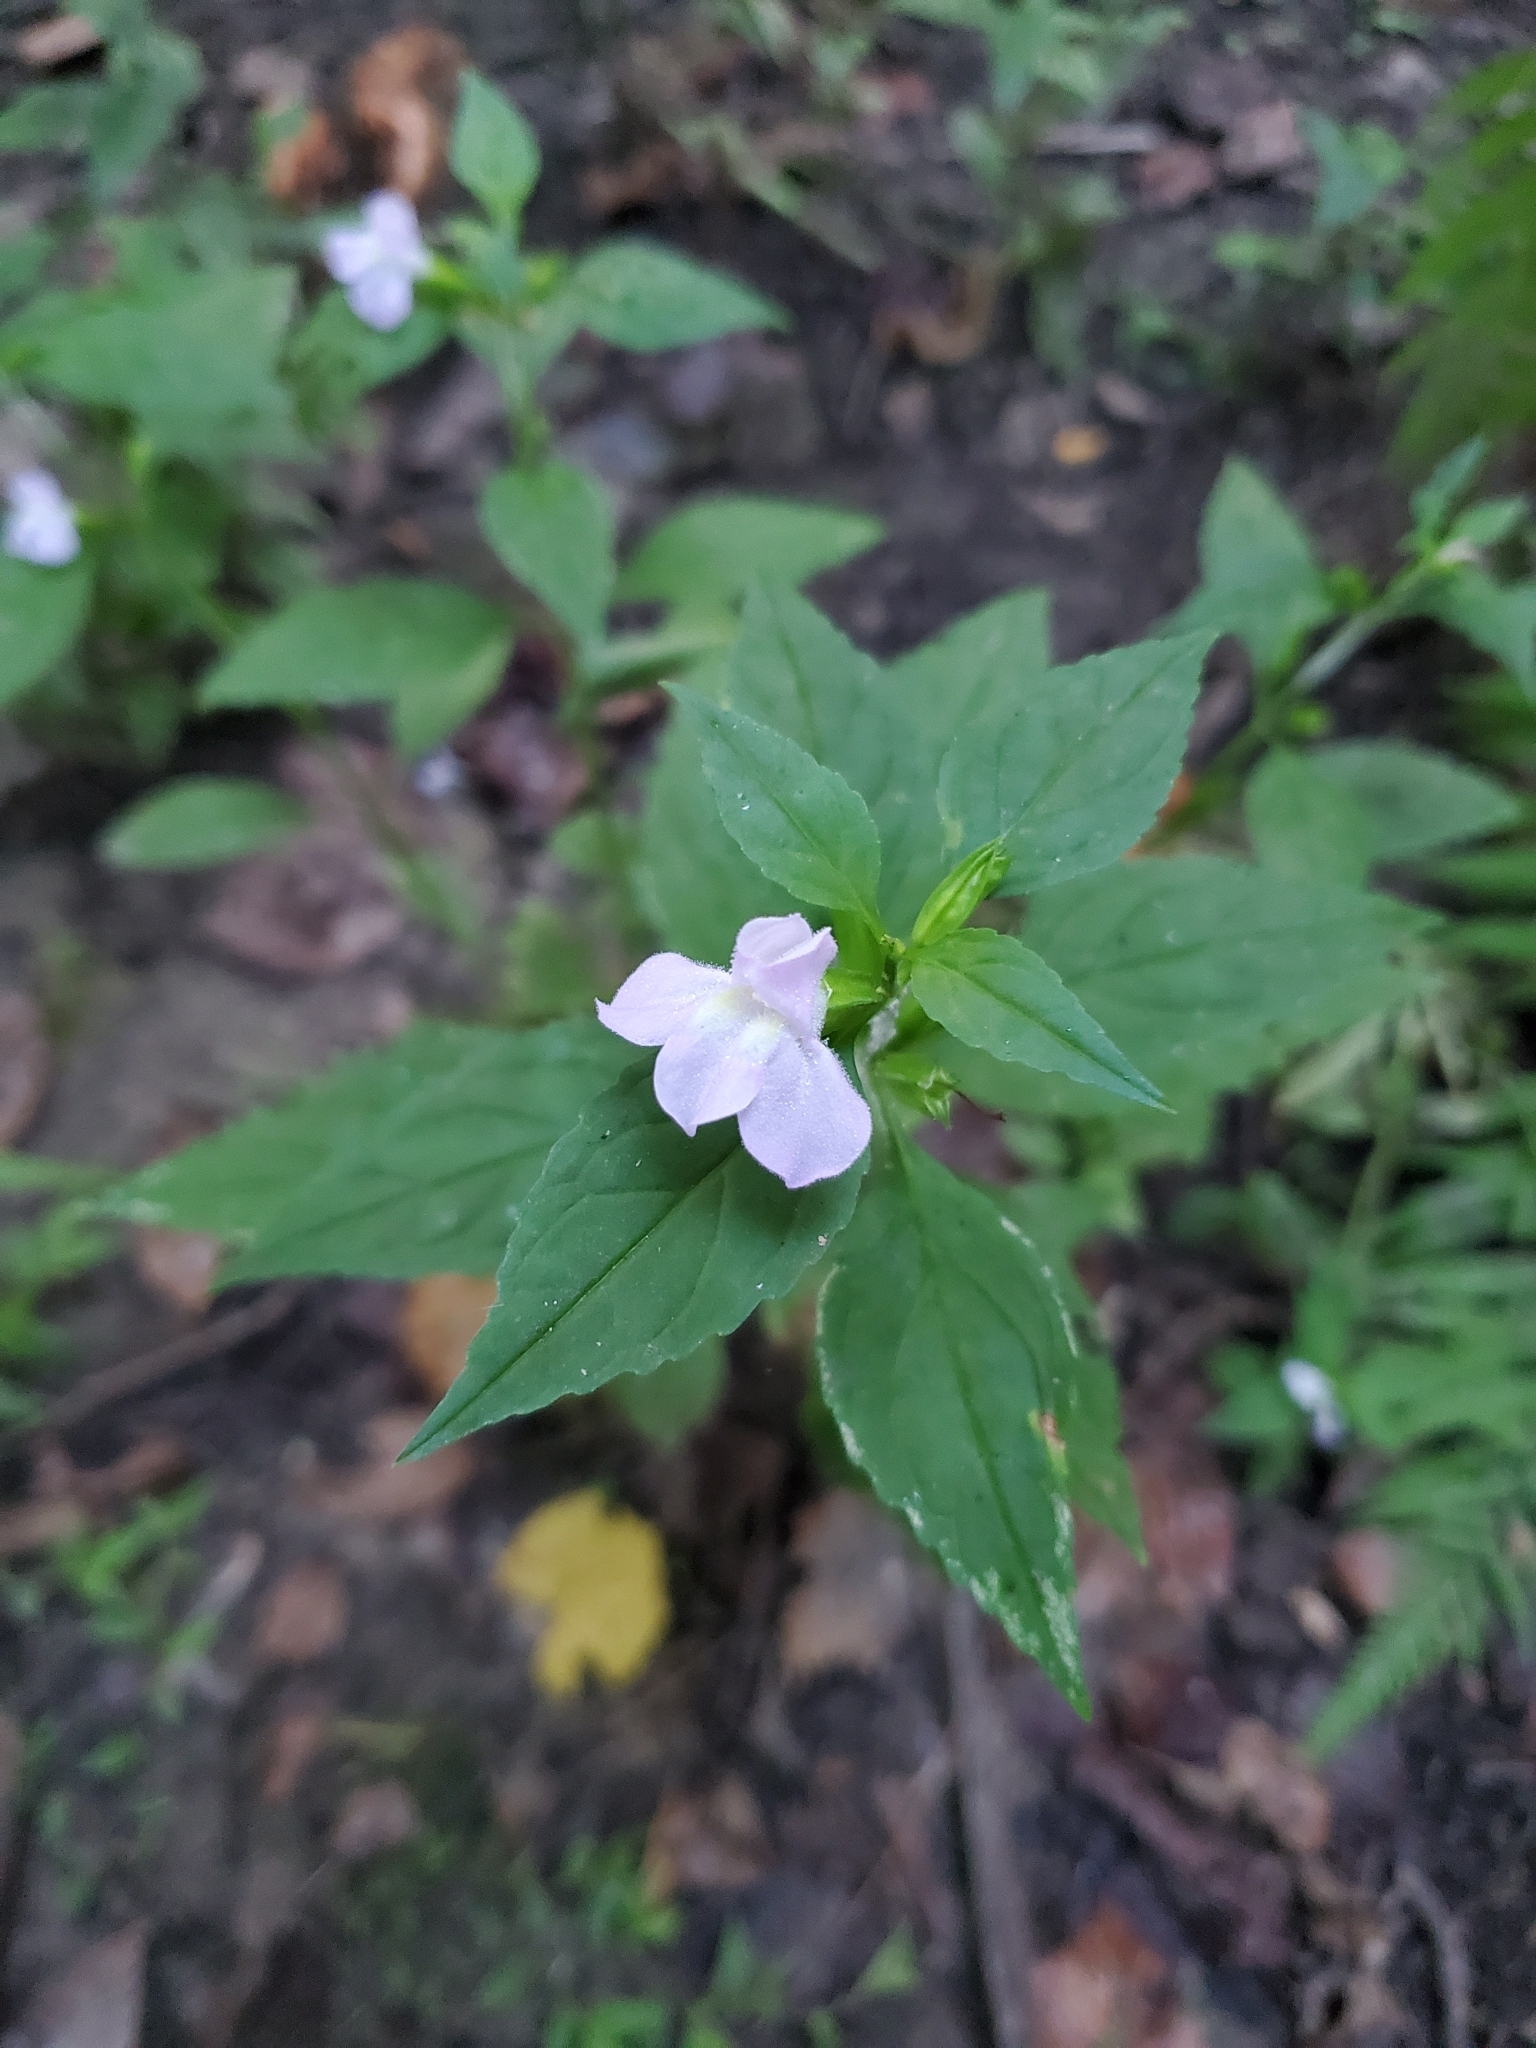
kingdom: Plantae
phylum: Tracheophyta
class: Magnoliopsida
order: Lamiales
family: Phrymaceae
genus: Mimulus
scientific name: Mimulus alatus
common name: Sharp-wing monkey-flower
